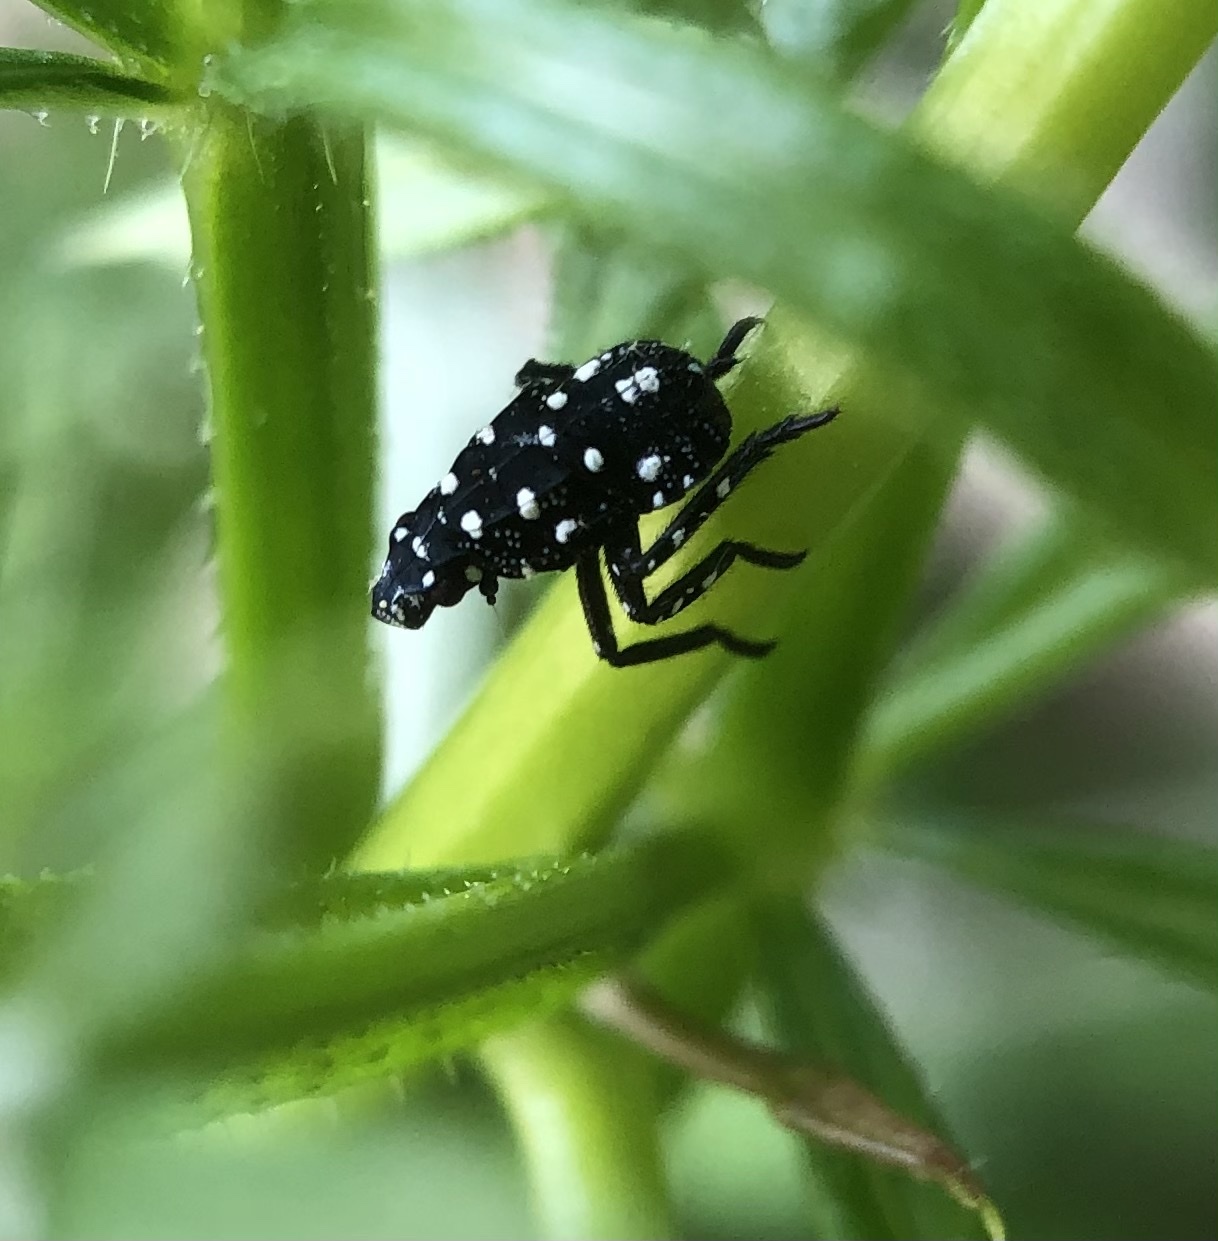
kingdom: Animalia
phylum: Arthropoda
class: Insecta
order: Hemiptera
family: Fulgoridae
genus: Lycorma
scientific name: Lycorma delicatula
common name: Spotted lanternfly
